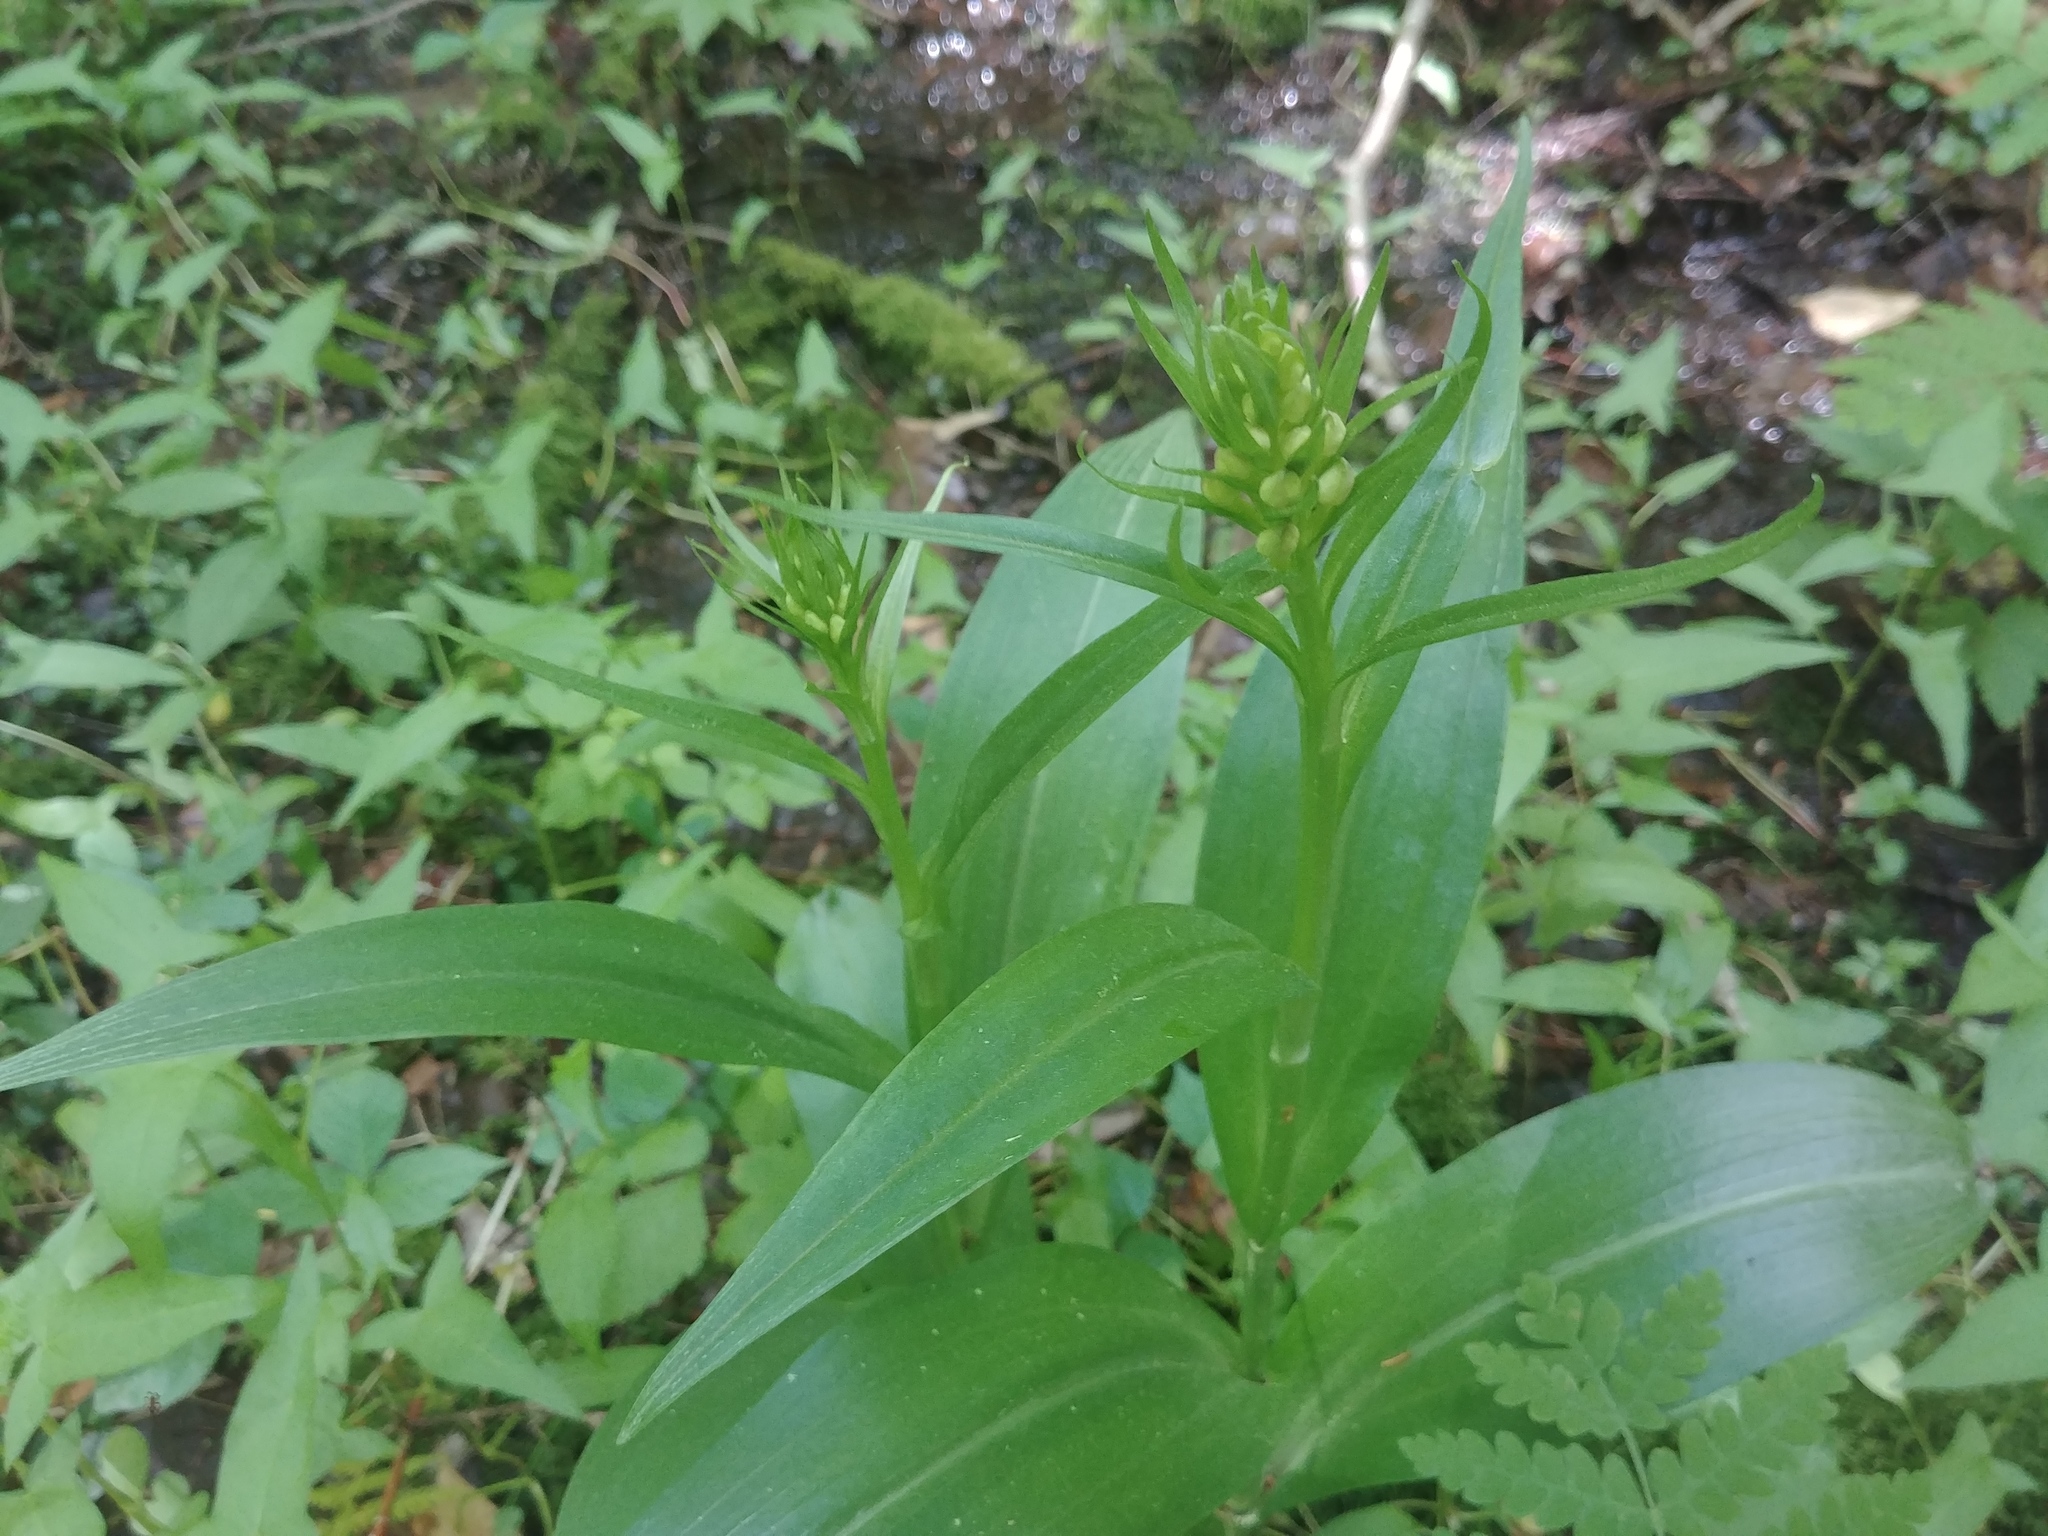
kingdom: Plantae
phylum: Tracheophyta
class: Liliopsida
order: Asparagales
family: Orchidaceae
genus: Platanthera
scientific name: Platanthera grandiflora
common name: Greater purple fringed orchid
